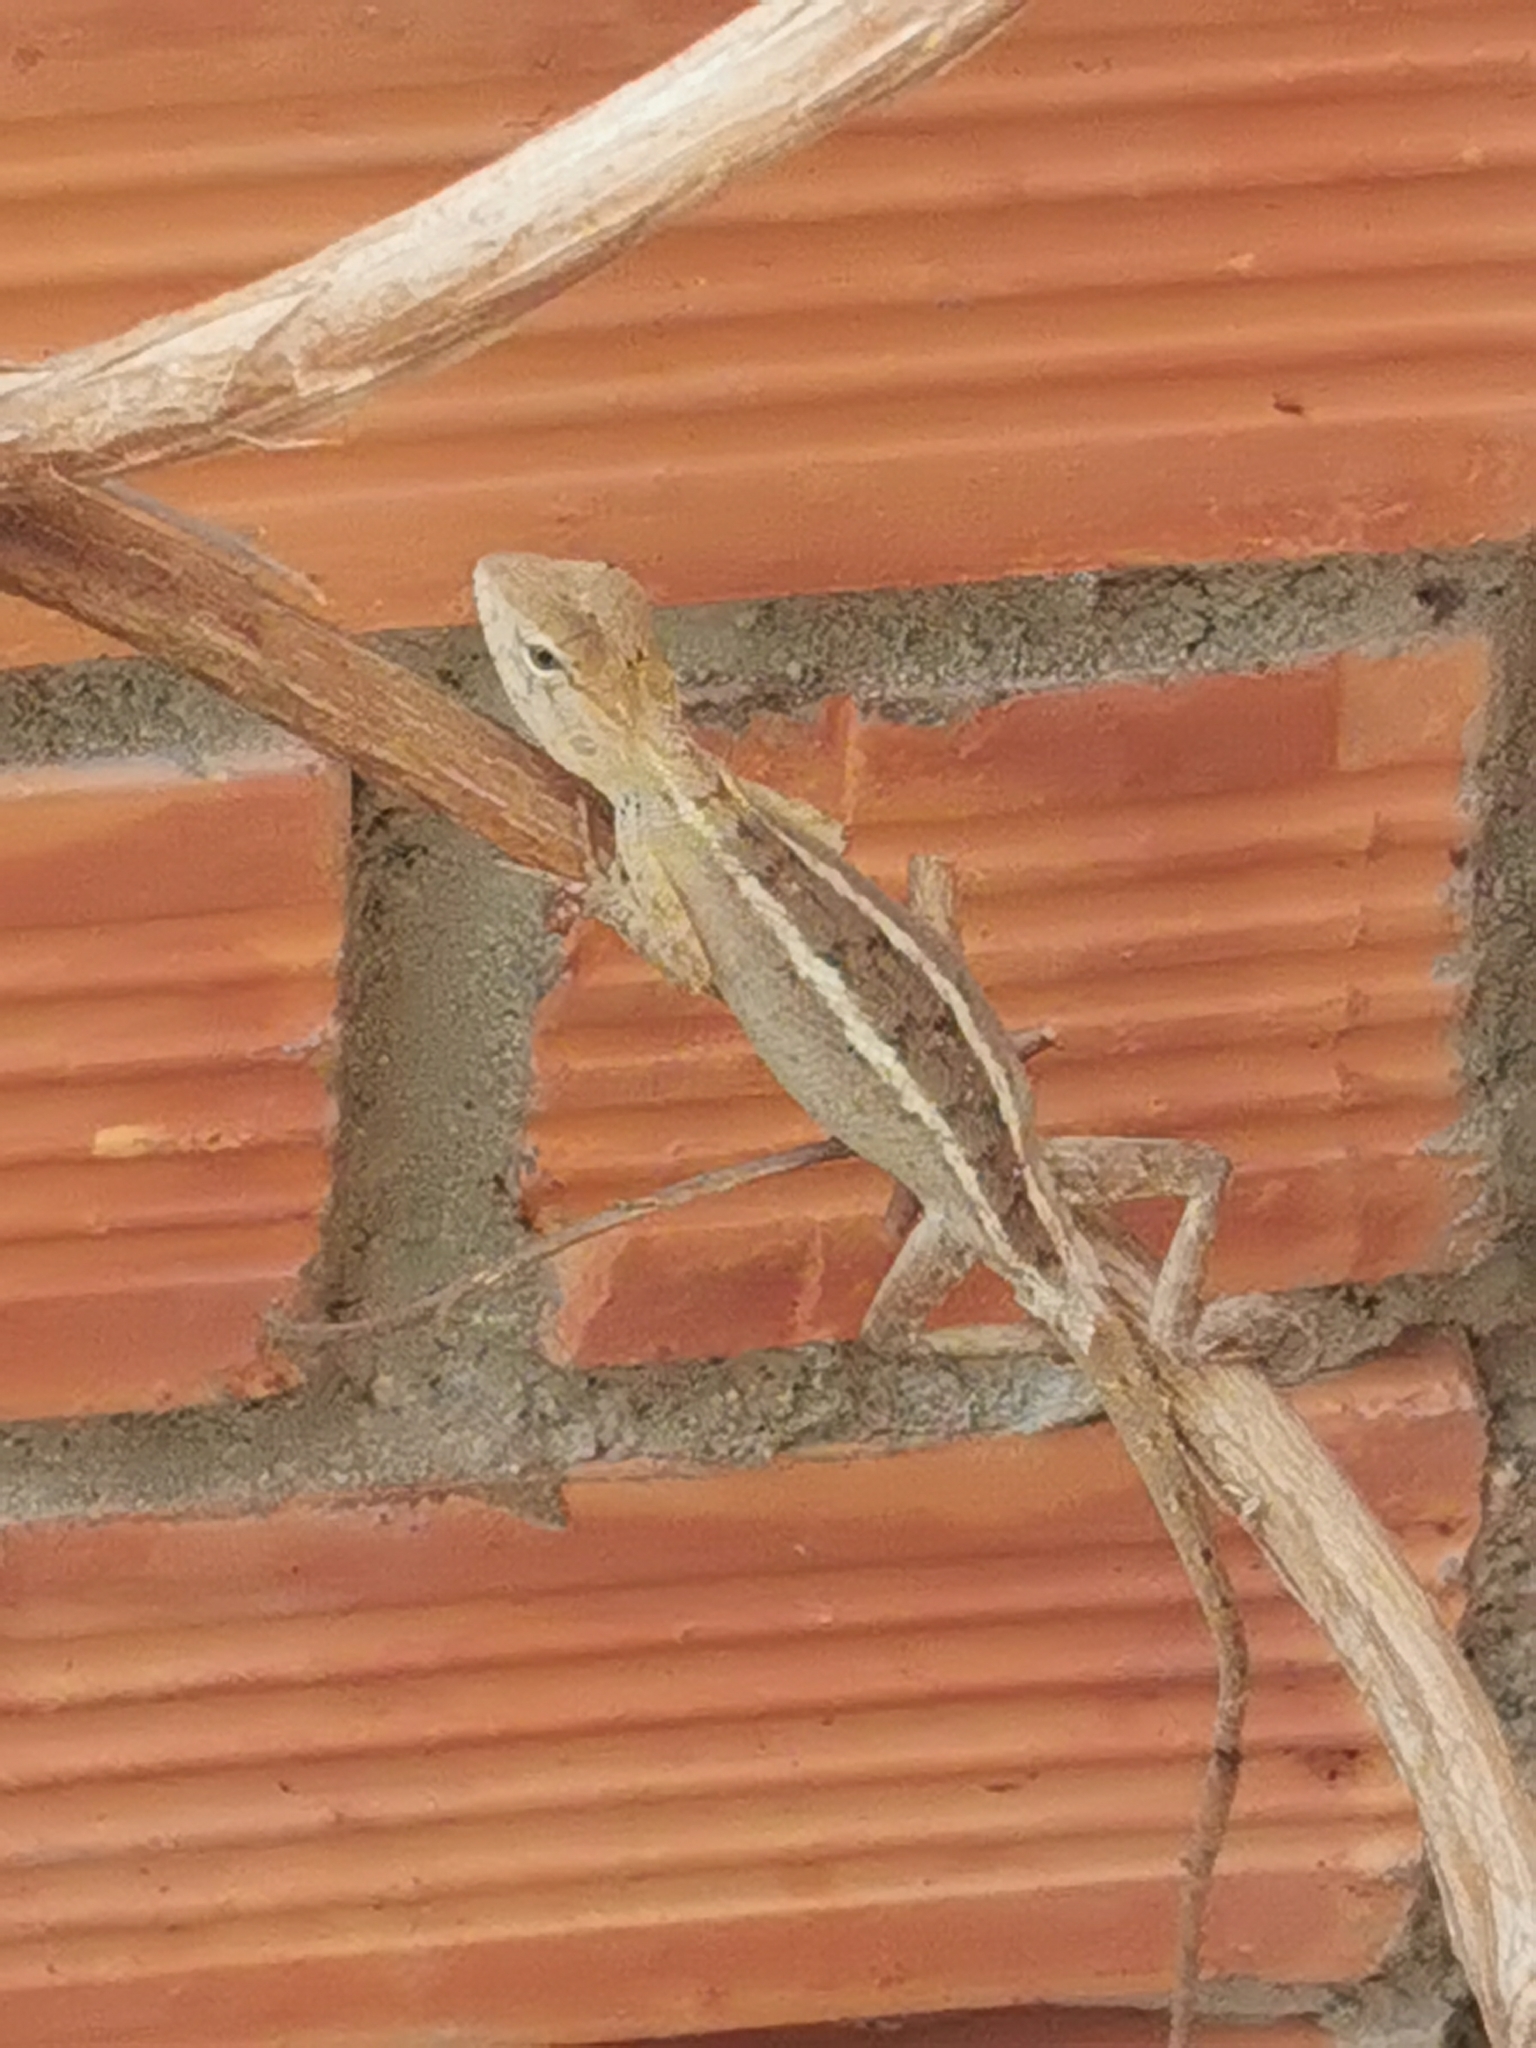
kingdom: Animalia
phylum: Chordata
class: Squamata
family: Agamidae
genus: Calotes
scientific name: Calotes versicolor
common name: Oriental garden lizard
